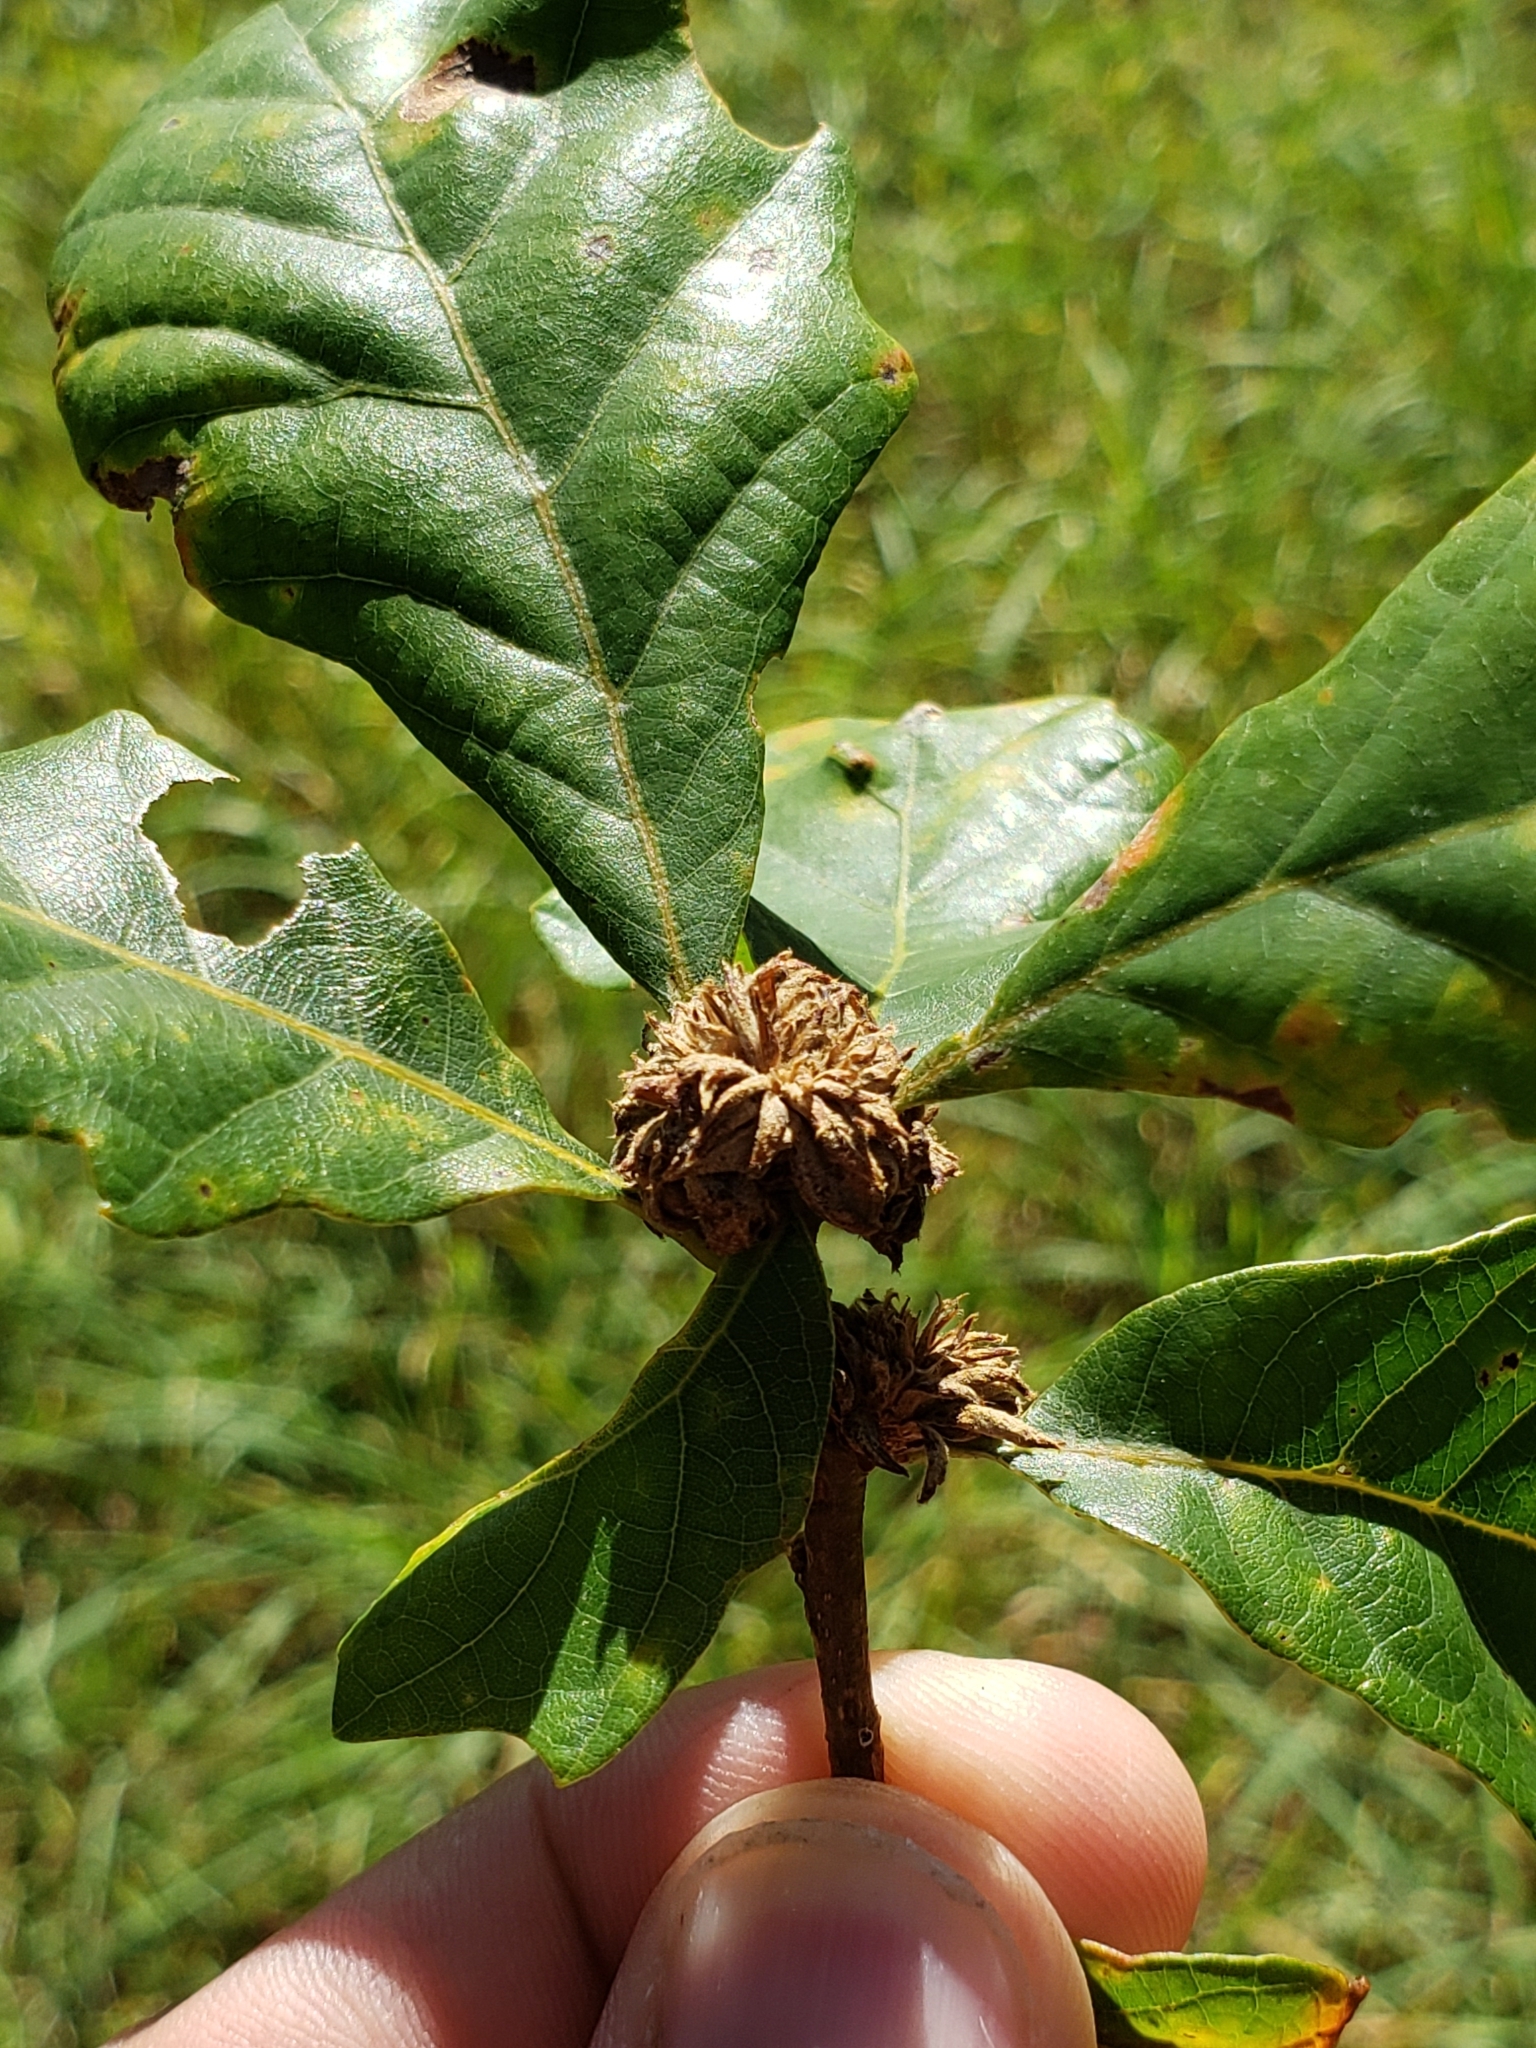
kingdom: Animalia
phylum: Arthropoda
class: Insecta
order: Hymenoptera
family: Cynipidae
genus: Andricus
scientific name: Andricus
